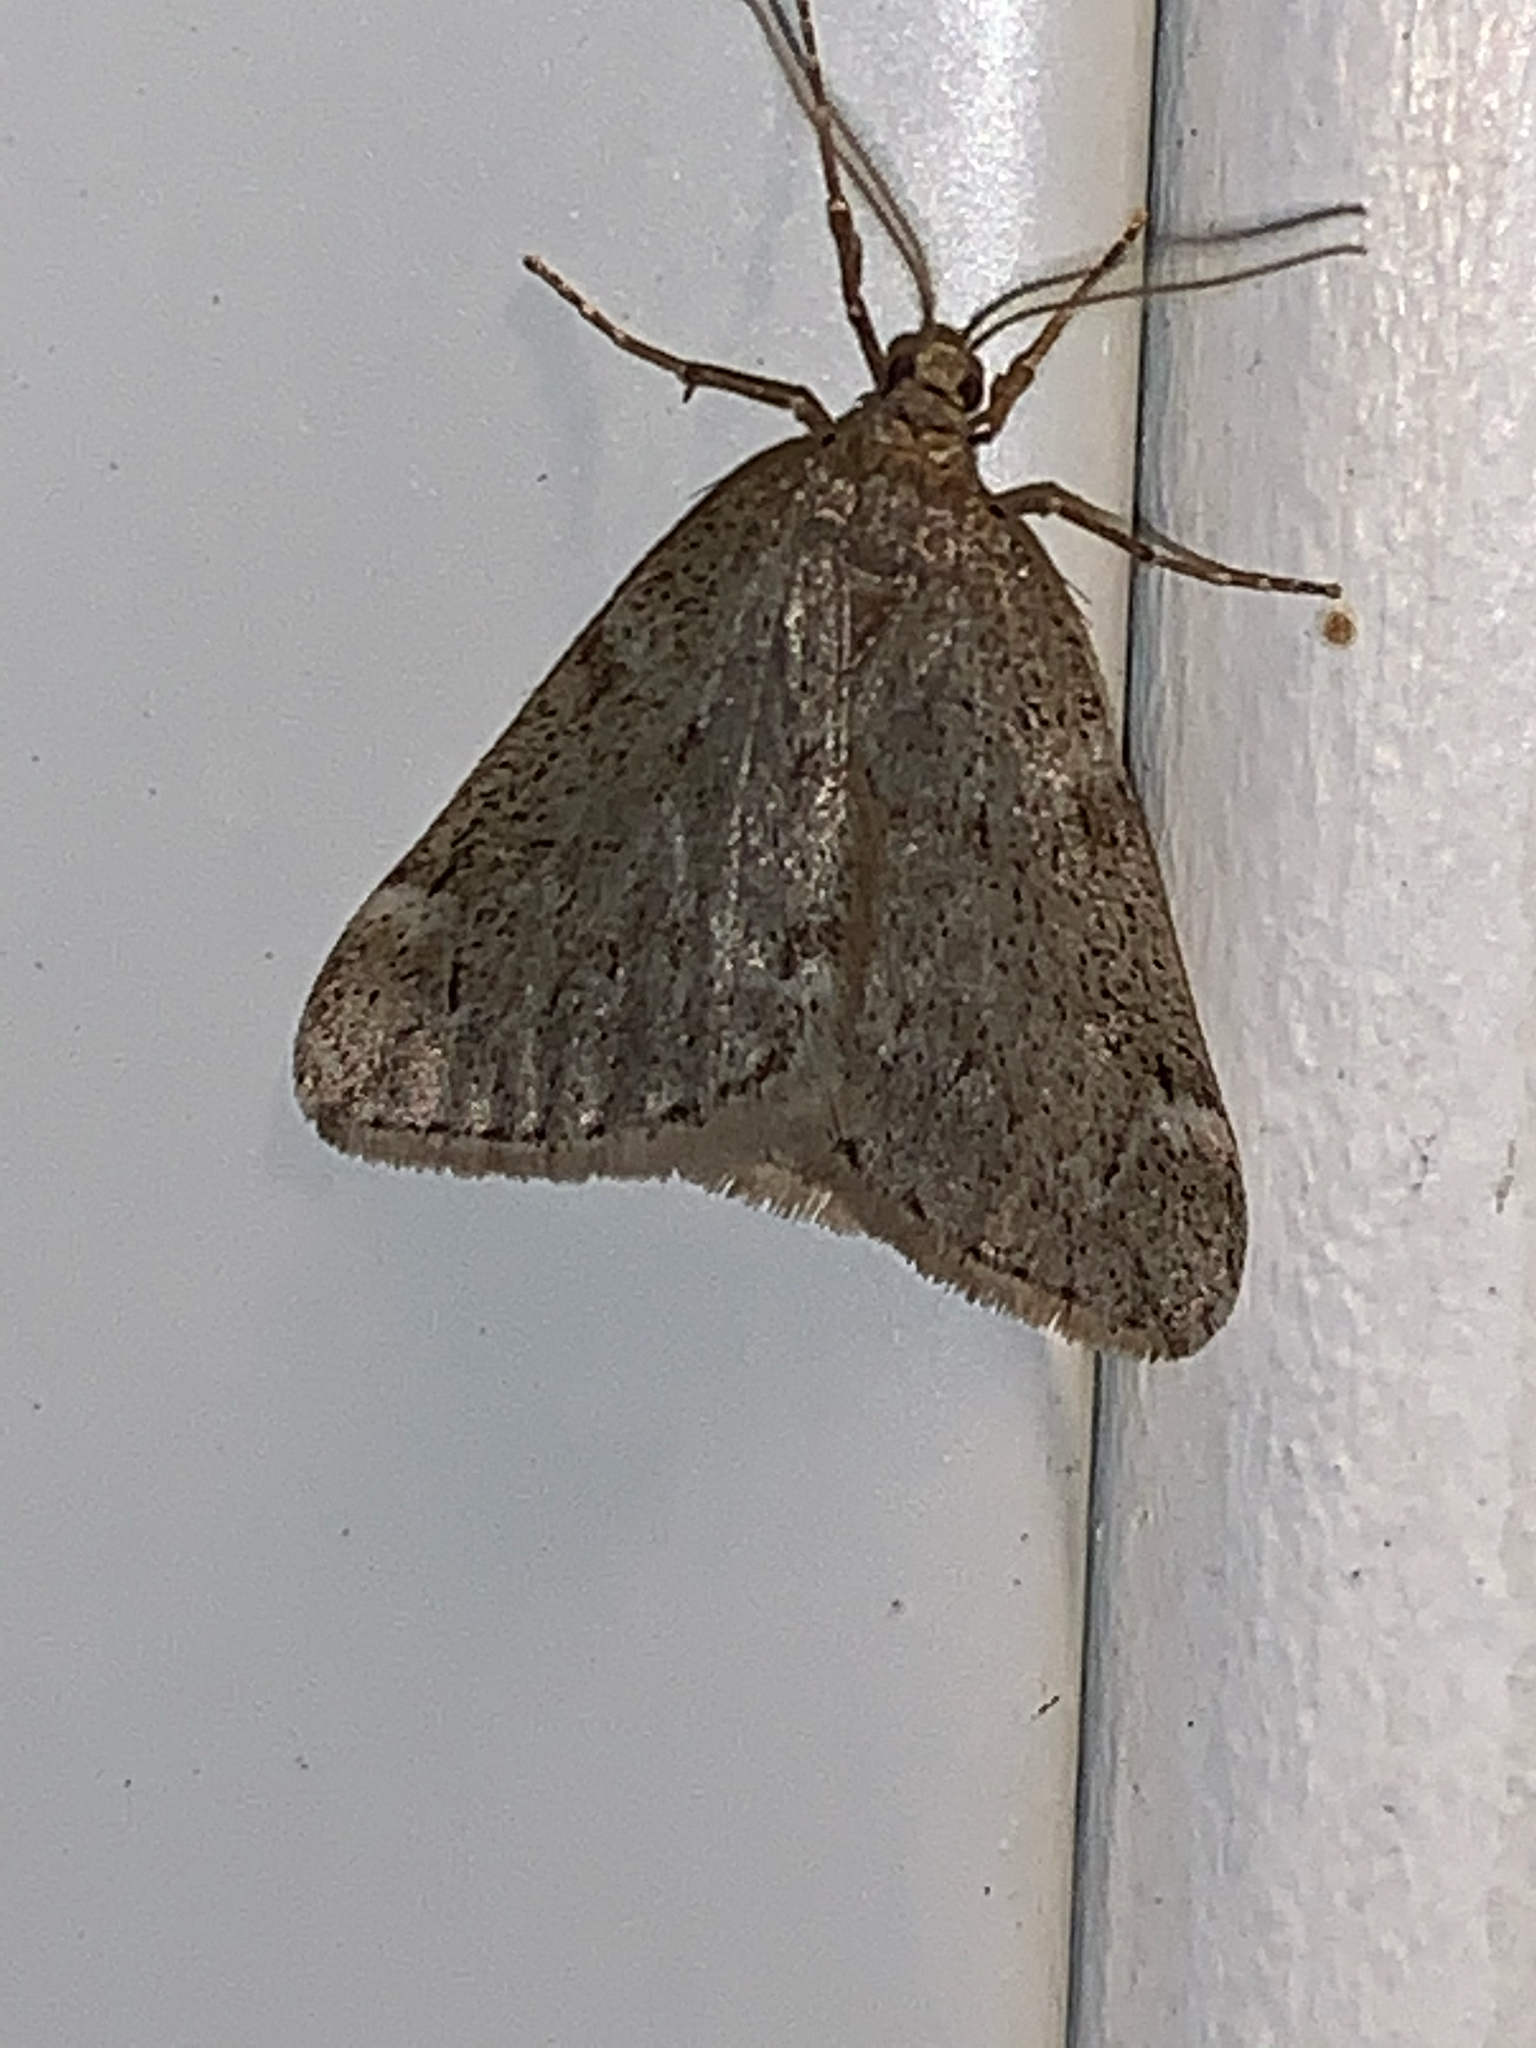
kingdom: Animalia
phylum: Arthropoda
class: Insecta
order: Lepidoptera
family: Geometridae
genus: Alsophila
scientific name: Alsophila pometaria
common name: Fall cankerworm
